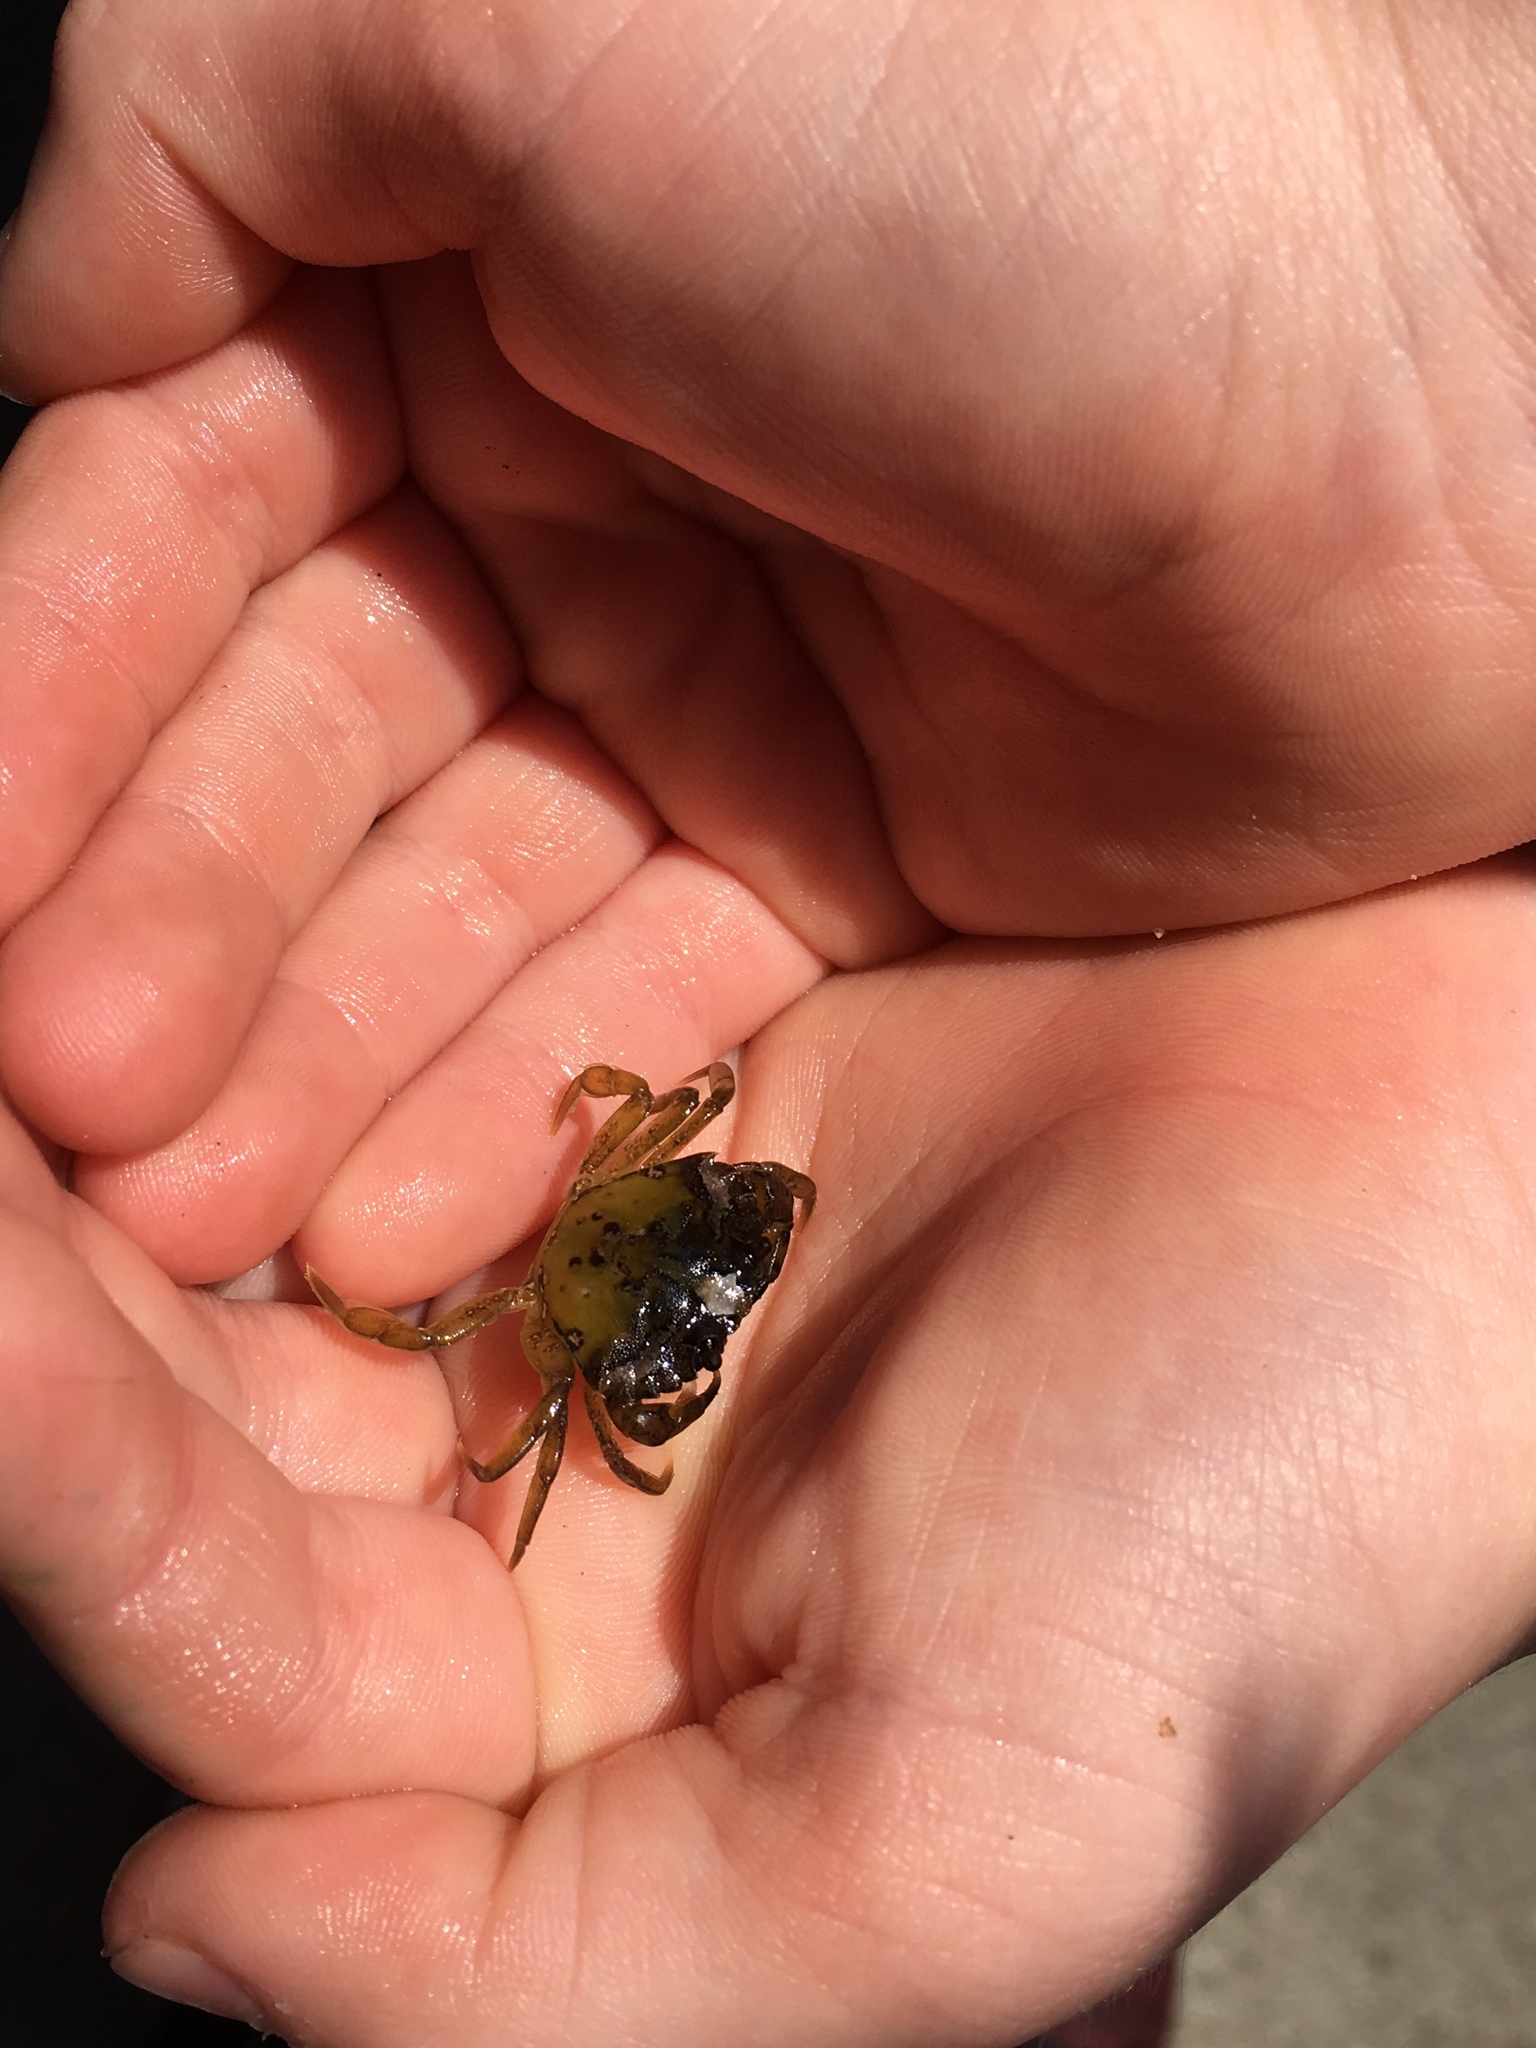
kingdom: Animalia
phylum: Arthropoda
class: Malacostraca
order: Decapoda
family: Carcinidae
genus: Carcinus
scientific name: Carcinus maenas
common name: European green crab
